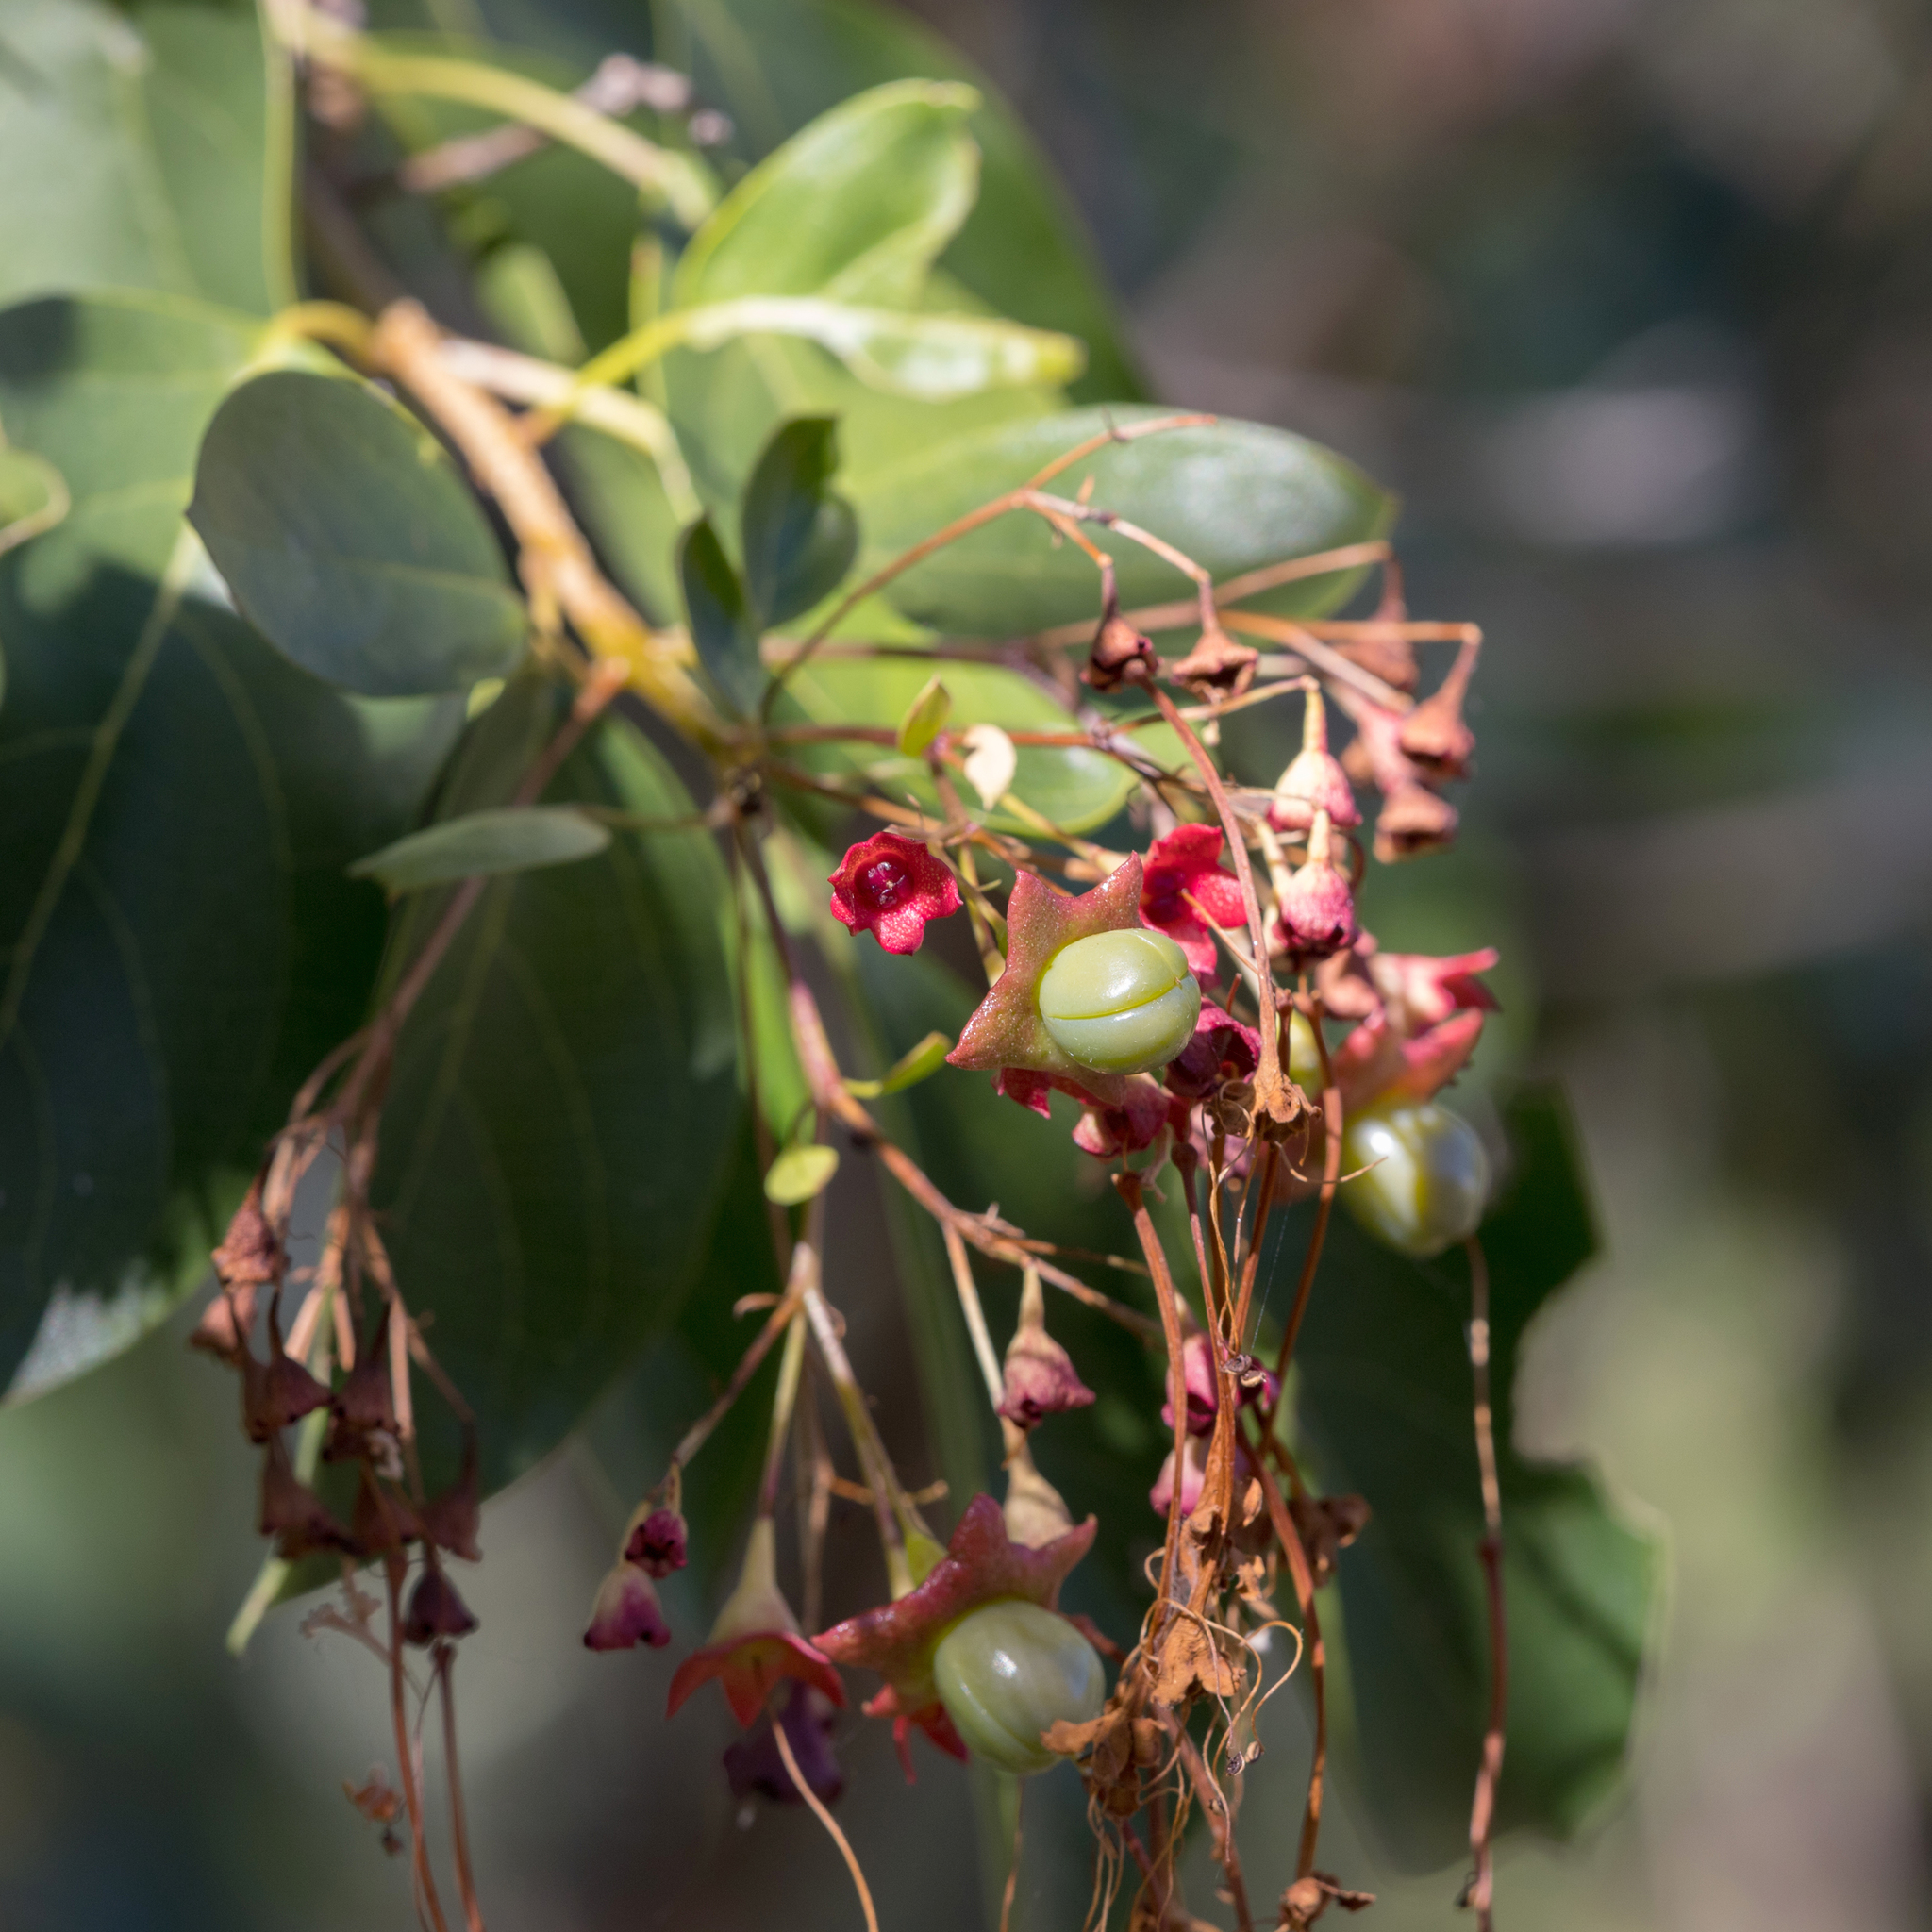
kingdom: Plantae
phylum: Tracheophyta
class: Magnoliopsida
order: Lamiales
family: Lamiaceae
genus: Clerodendrum
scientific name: Clerodendrum floribundum
